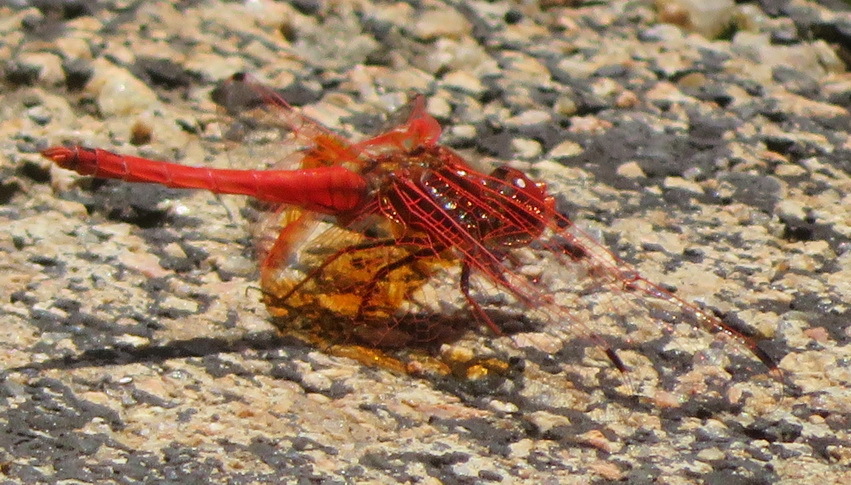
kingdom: Animalia
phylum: Arthropoda
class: Insecta
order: Odonata
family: Libellulidae
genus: Trithemis
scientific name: Trithemis kirbyi
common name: Kirby's dropwing
